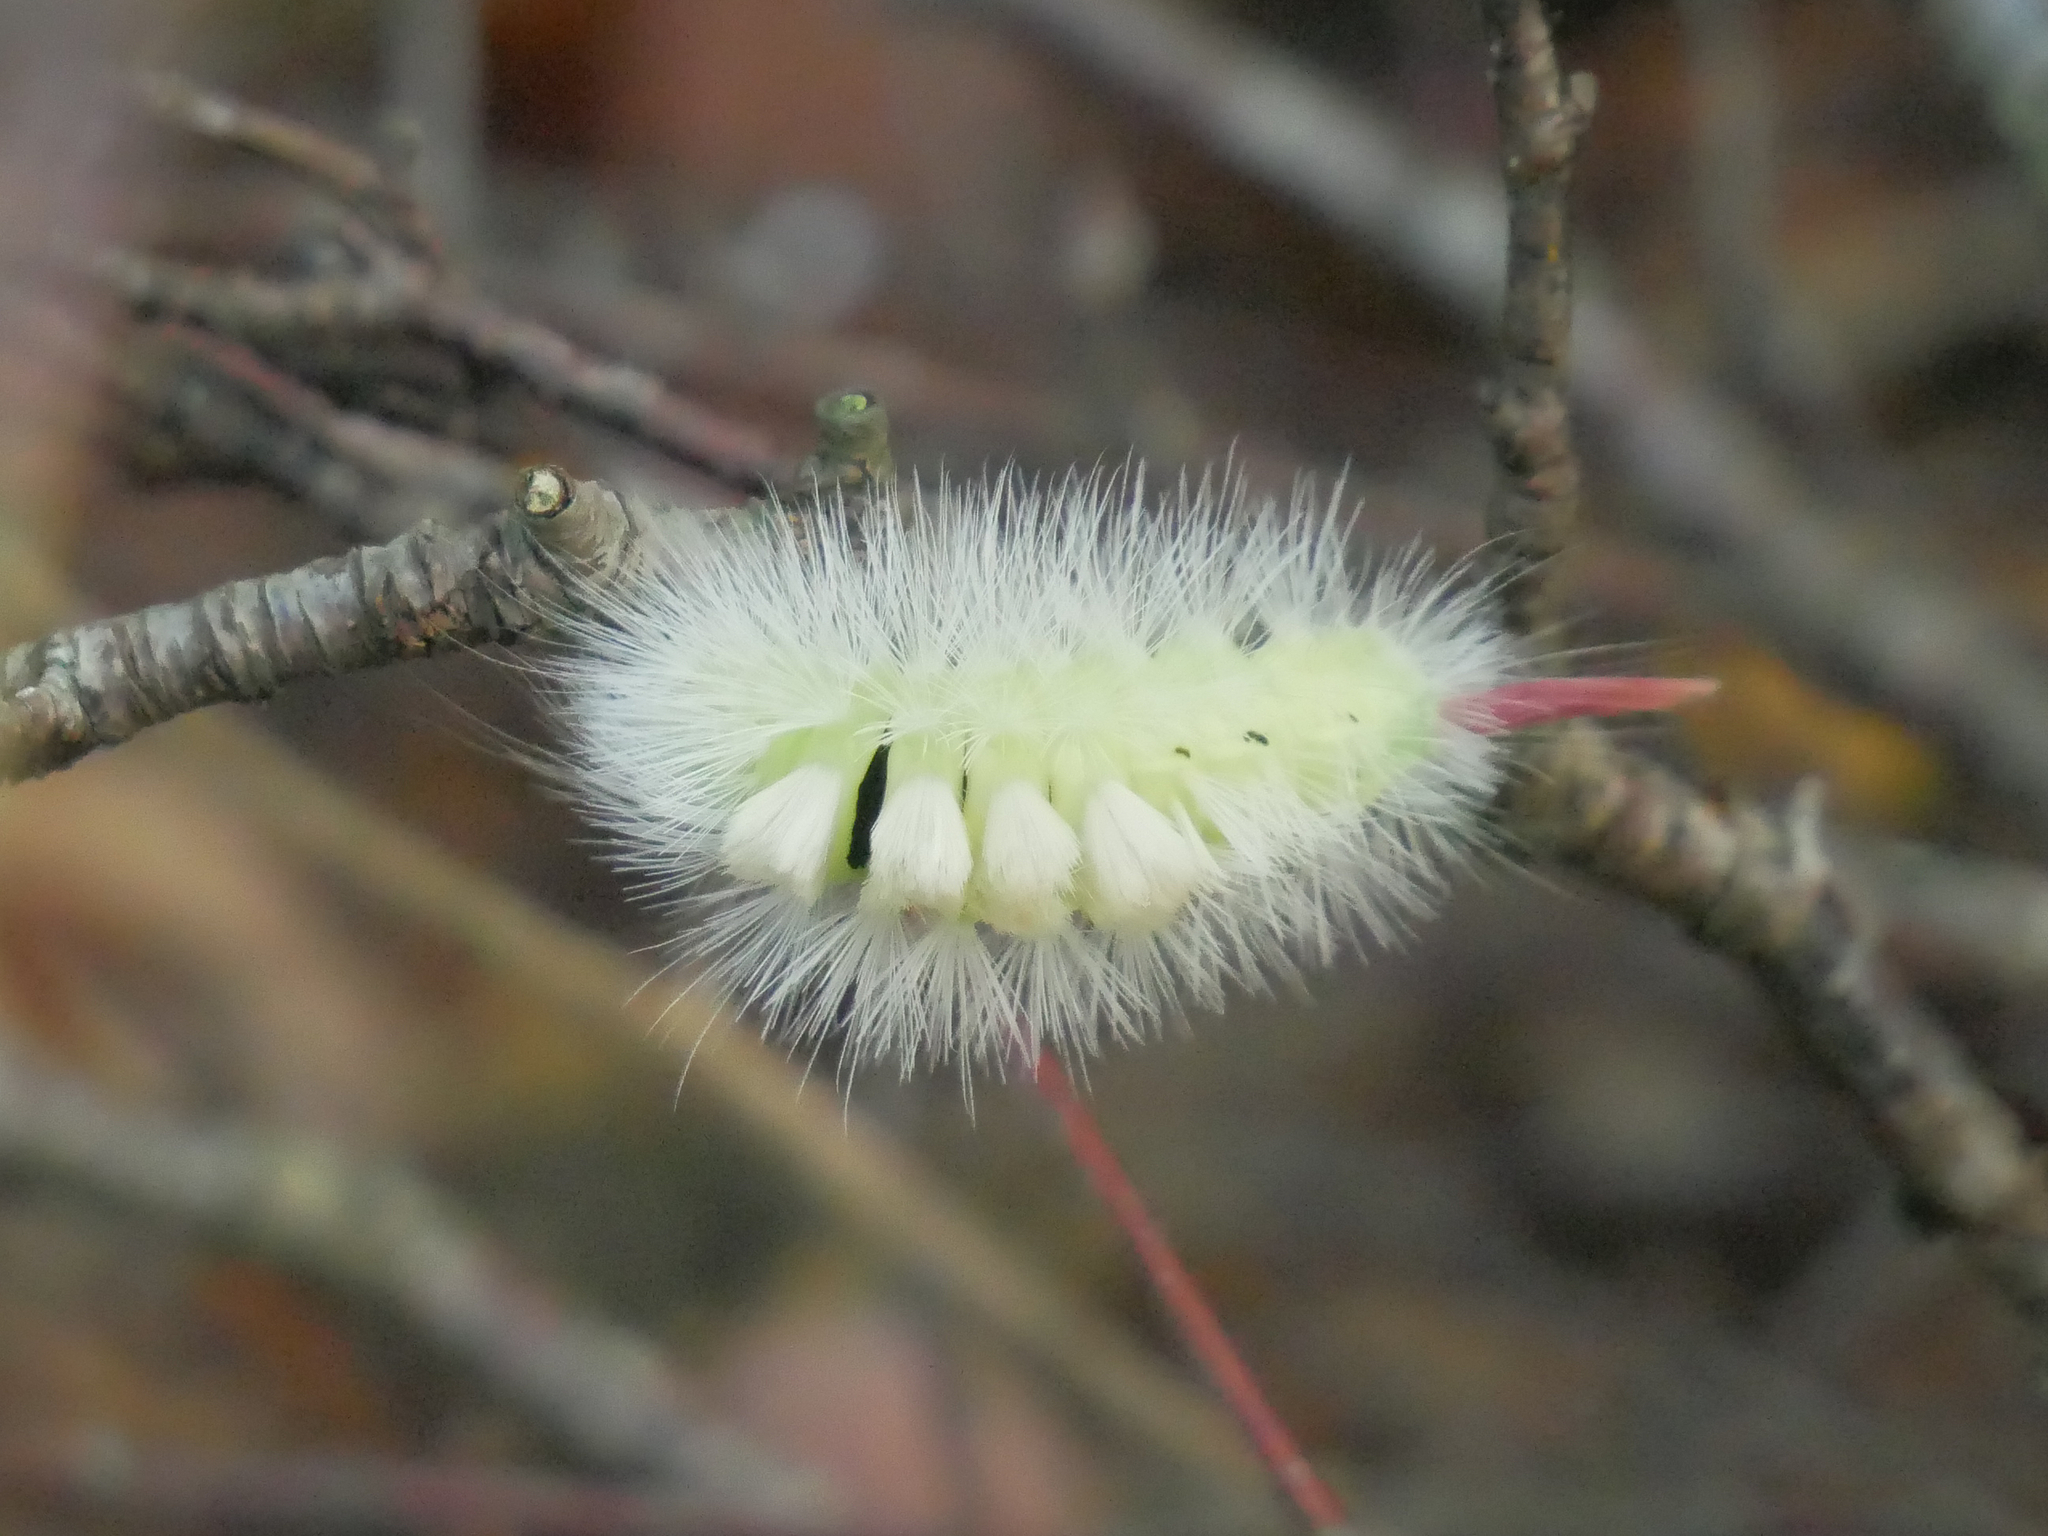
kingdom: Animalia
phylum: Arthropoda
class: Insecta
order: Lepidoptera
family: Erebidae
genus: Calliteara
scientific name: Calliteara pudibunda
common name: Pale tussock
